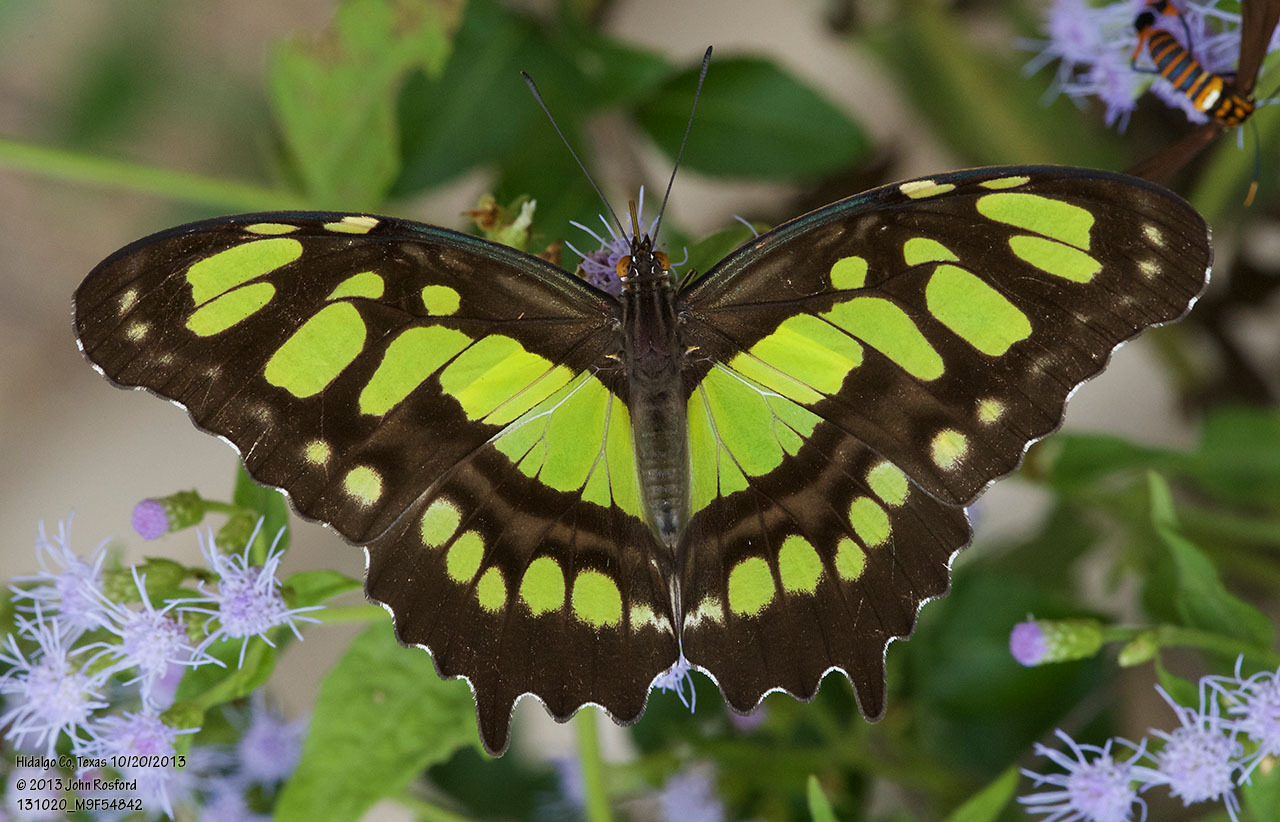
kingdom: Animalia
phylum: Arthropoda
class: Insecta
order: Lepidoptera
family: Nymphalidae
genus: Siproeta
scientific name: Siproeta stelenes
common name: Malachite
